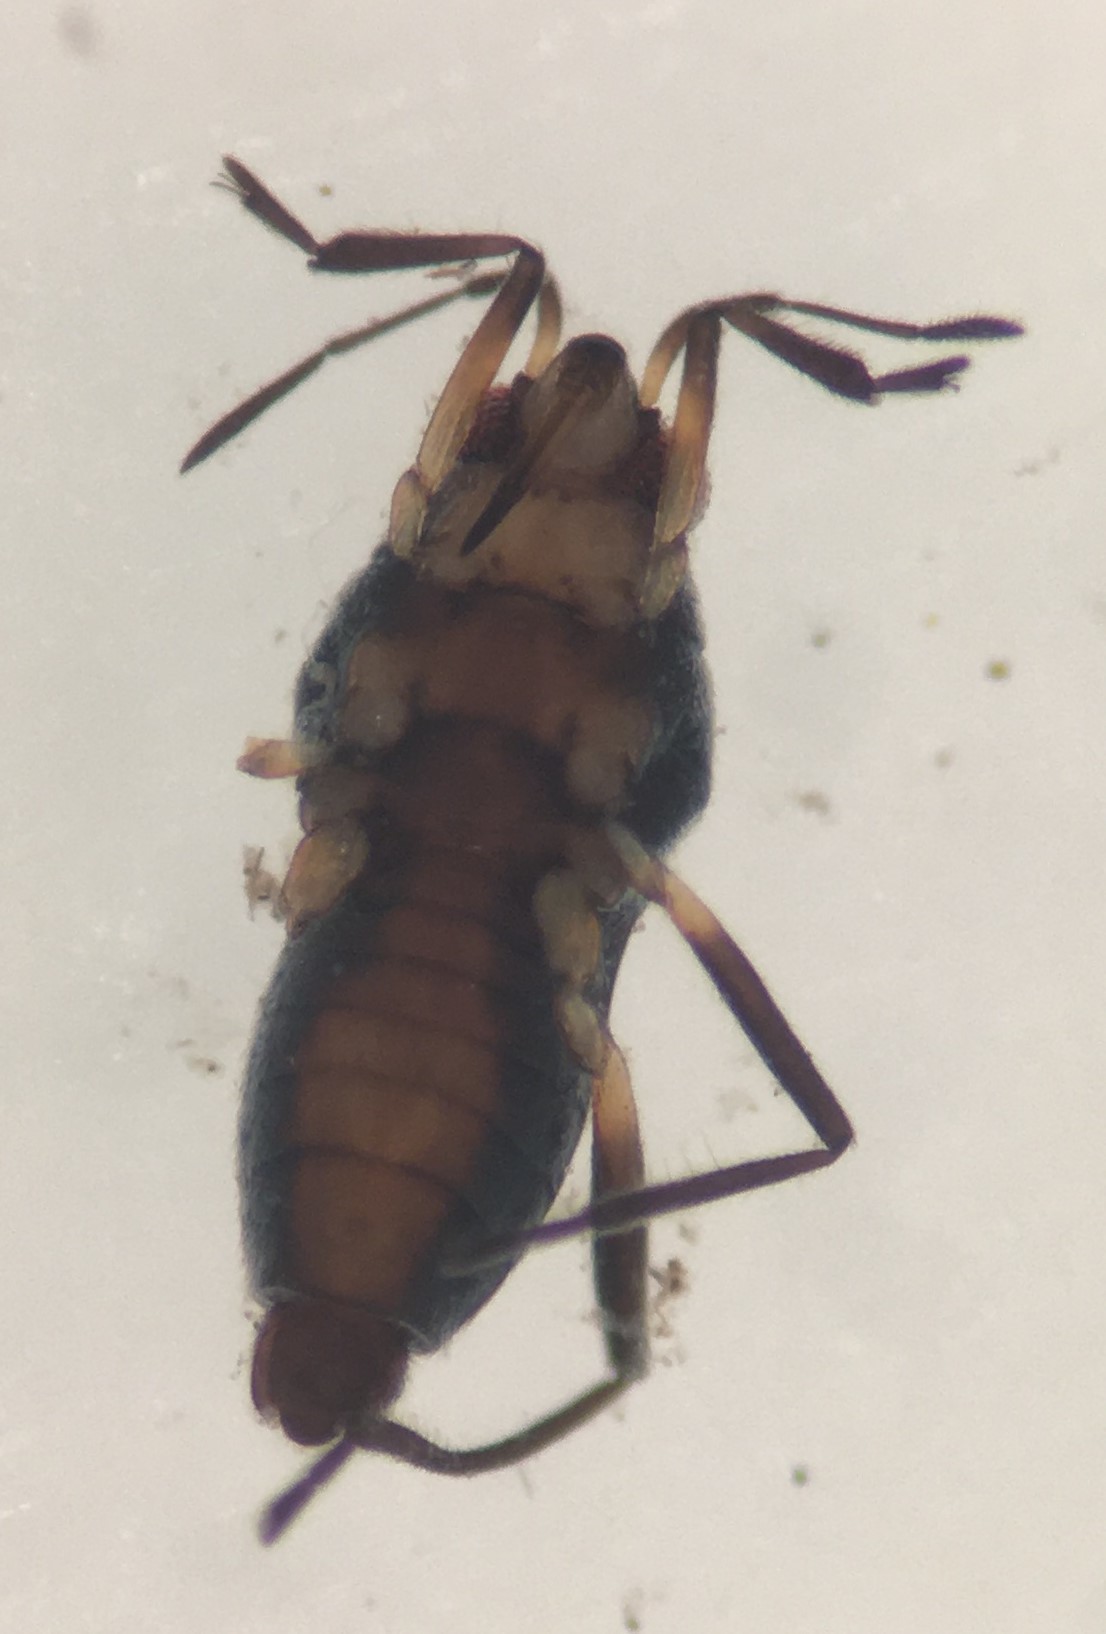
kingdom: Animalia
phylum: Arthropoda
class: Insecta
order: Hemiptera
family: Veliidae
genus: Microvelia
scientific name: Microvelia pulchella
